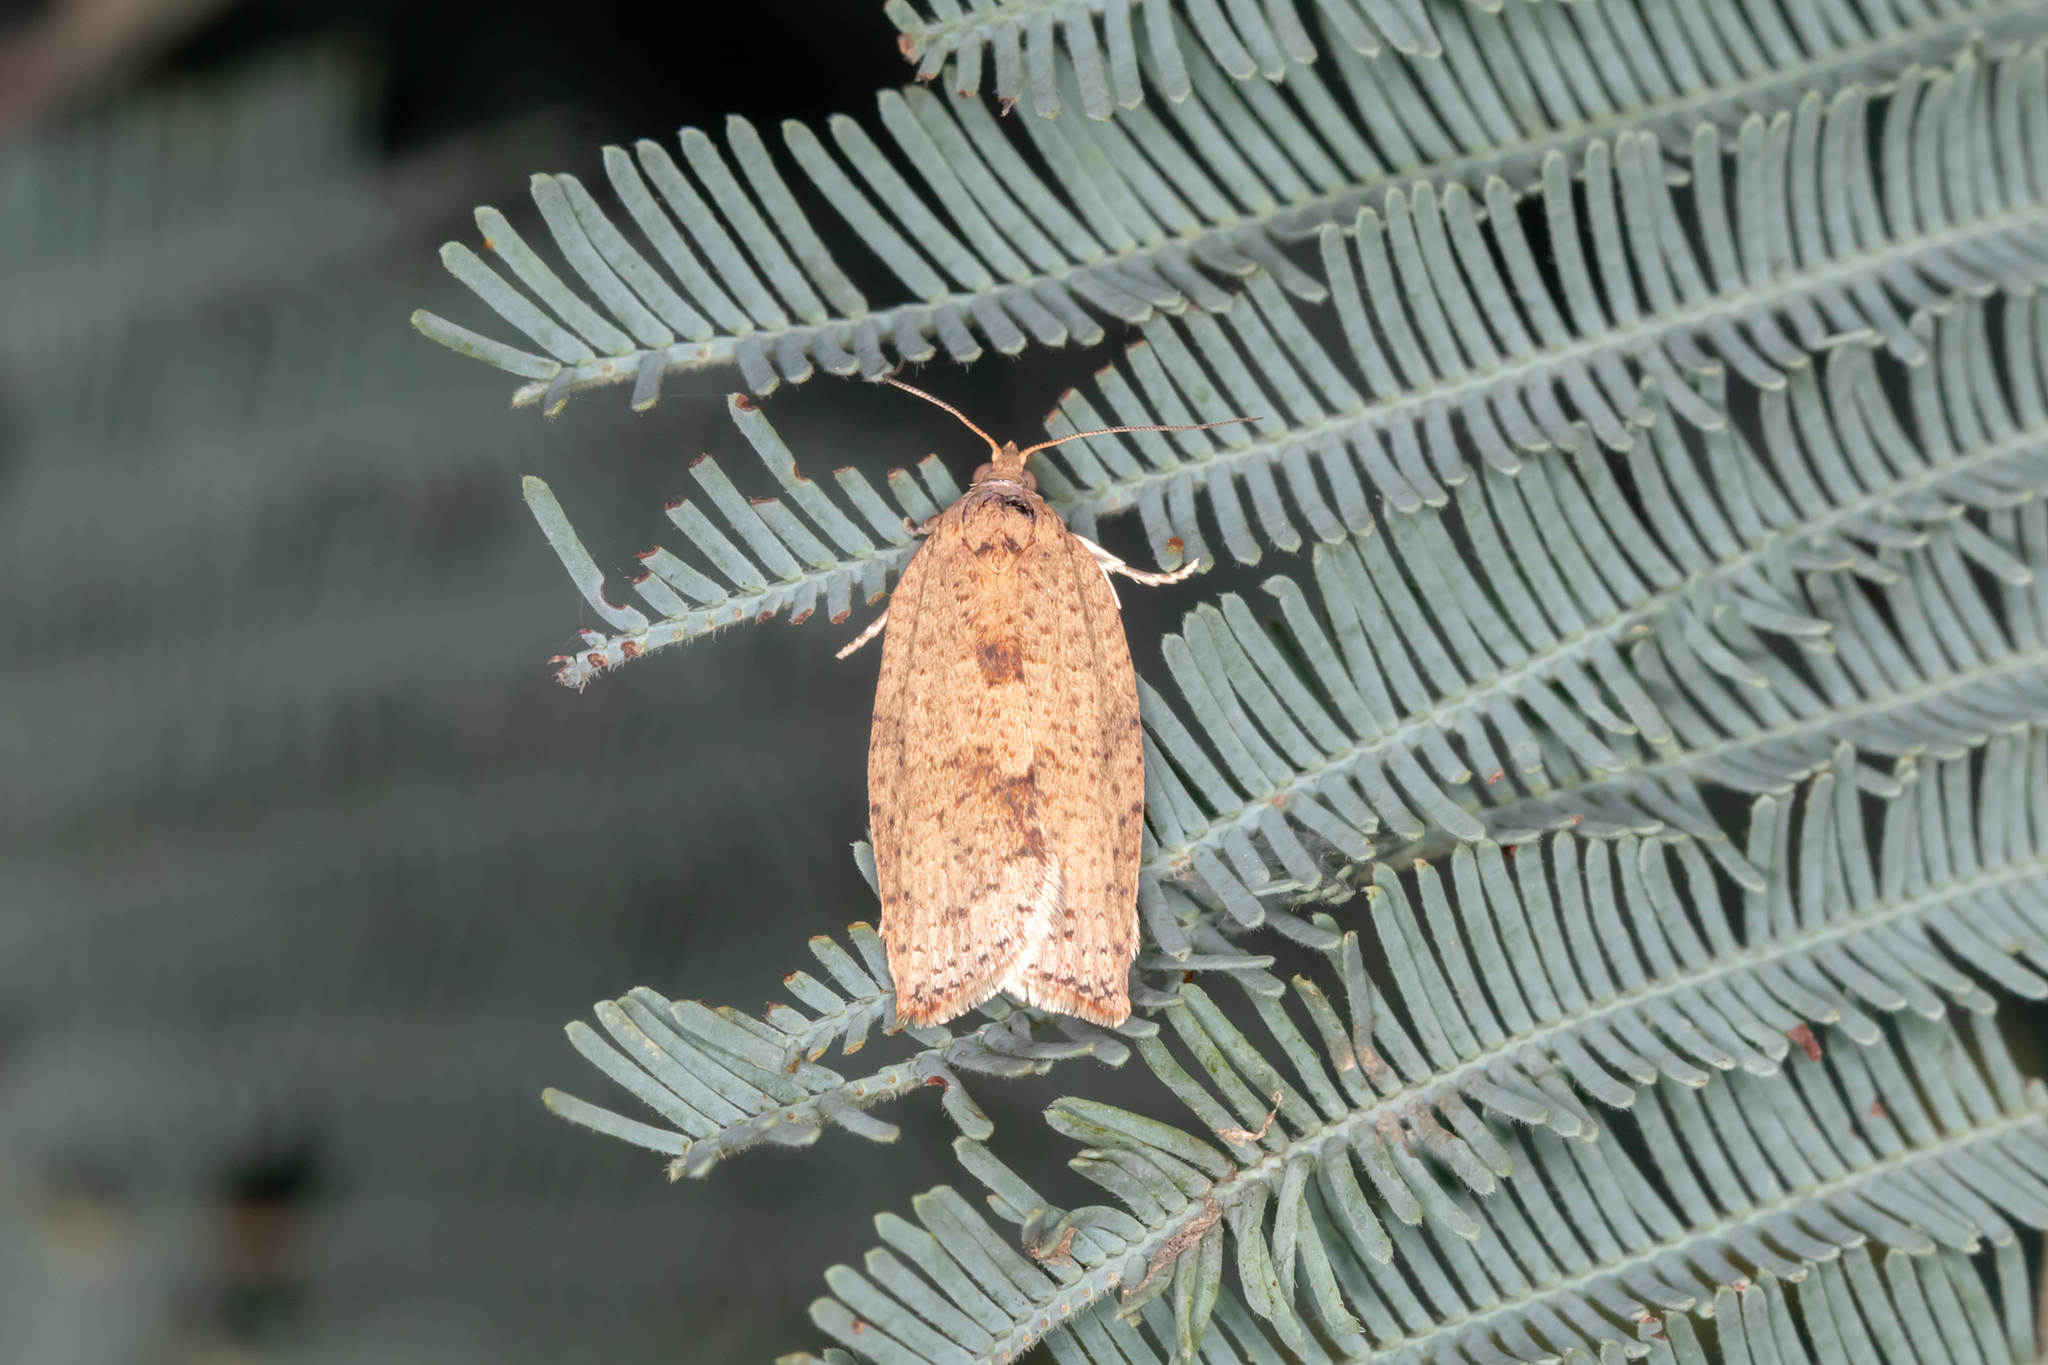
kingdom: Animalia
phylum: Arthropoda
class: Insecta
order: Lepidoptera
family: Tortricidae
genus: Epiphyas
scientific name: Epiphyas ashworthana
